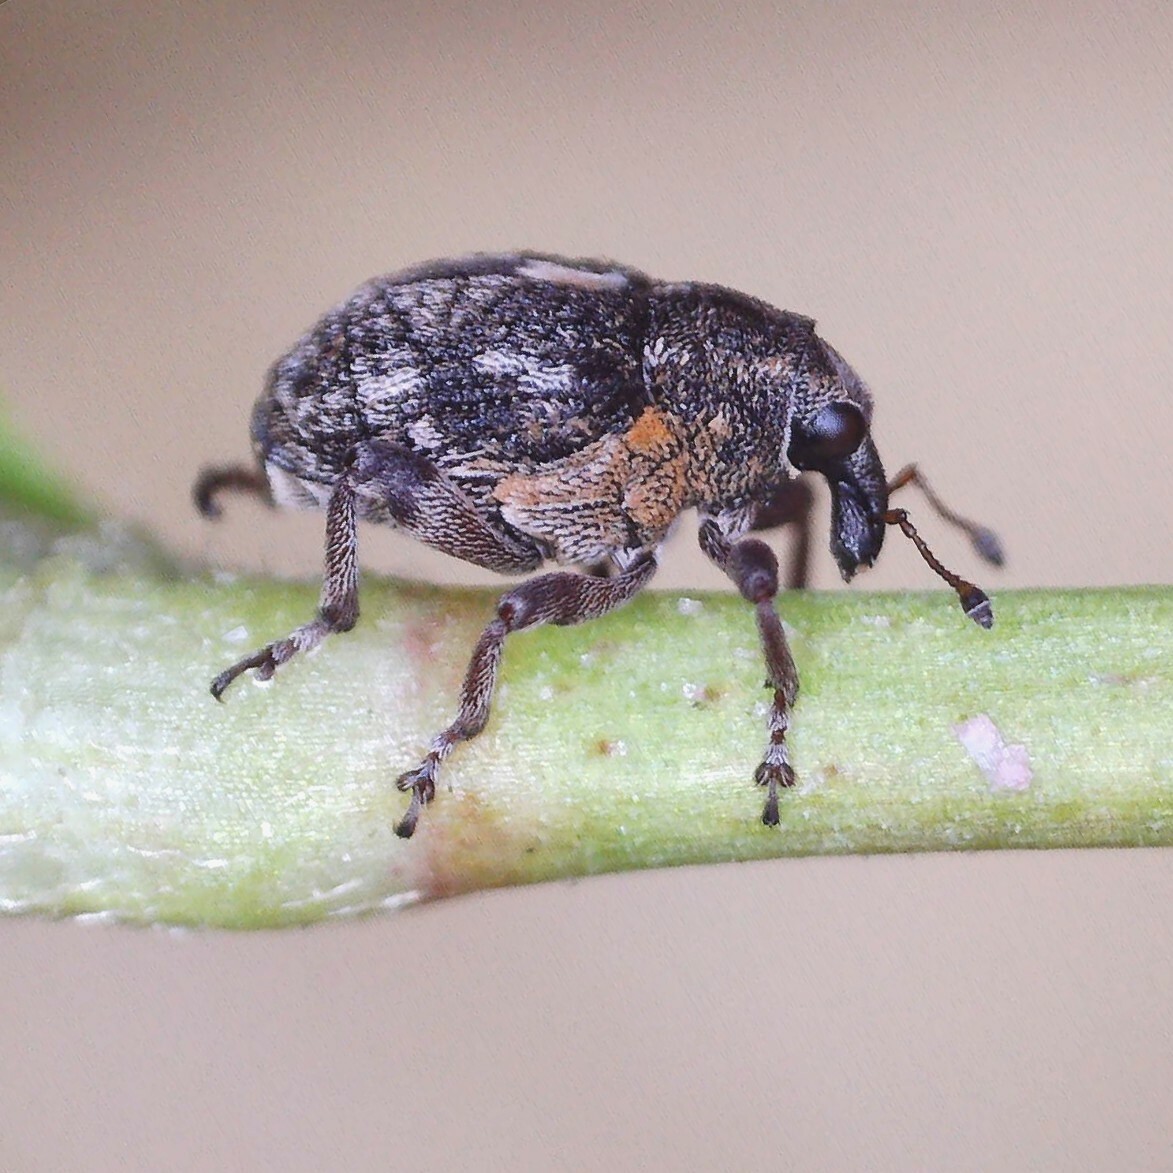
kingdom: Animalia
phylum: Arthropoda
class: Insecta
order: Coleoptera
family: Curculionidae
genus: Rhinoncus
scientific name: Rhinoncus pericarpius
